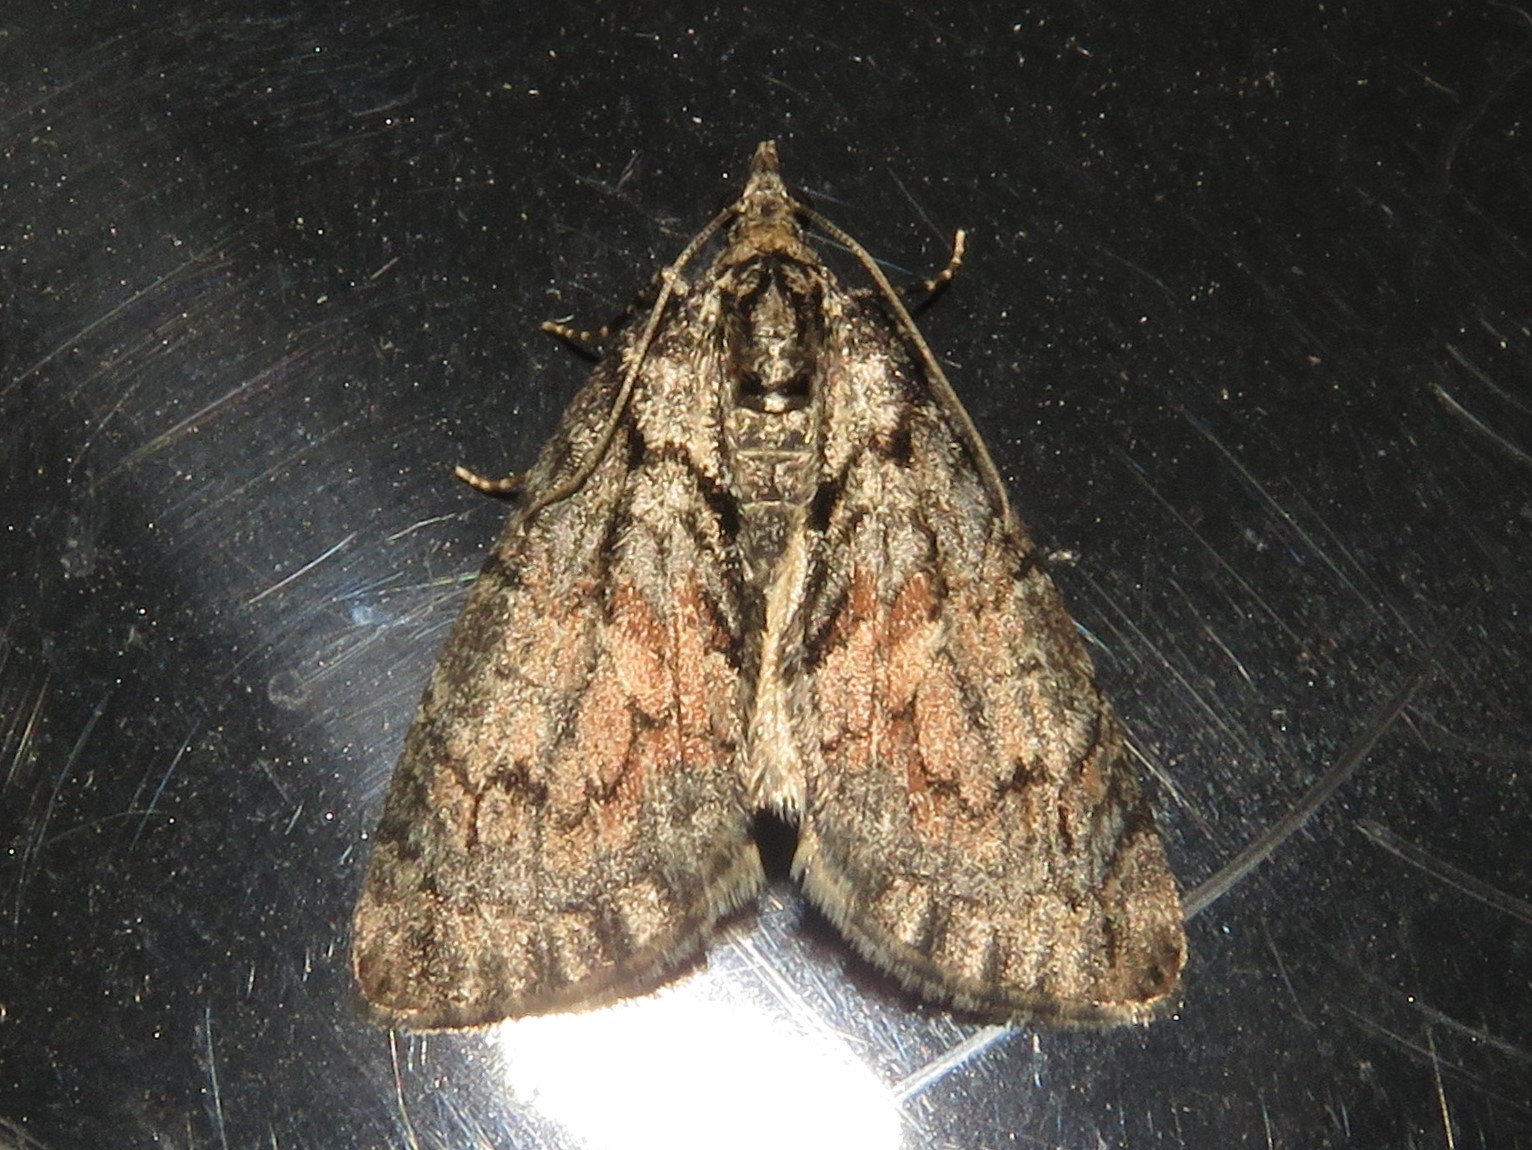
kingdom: Animalia
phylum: Arthropoda
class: Insecta
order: Lepidoptera
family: Geometridae
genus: Hydriomena
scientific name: Hydriomena perfracta
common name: Shattered hydriomena moth
